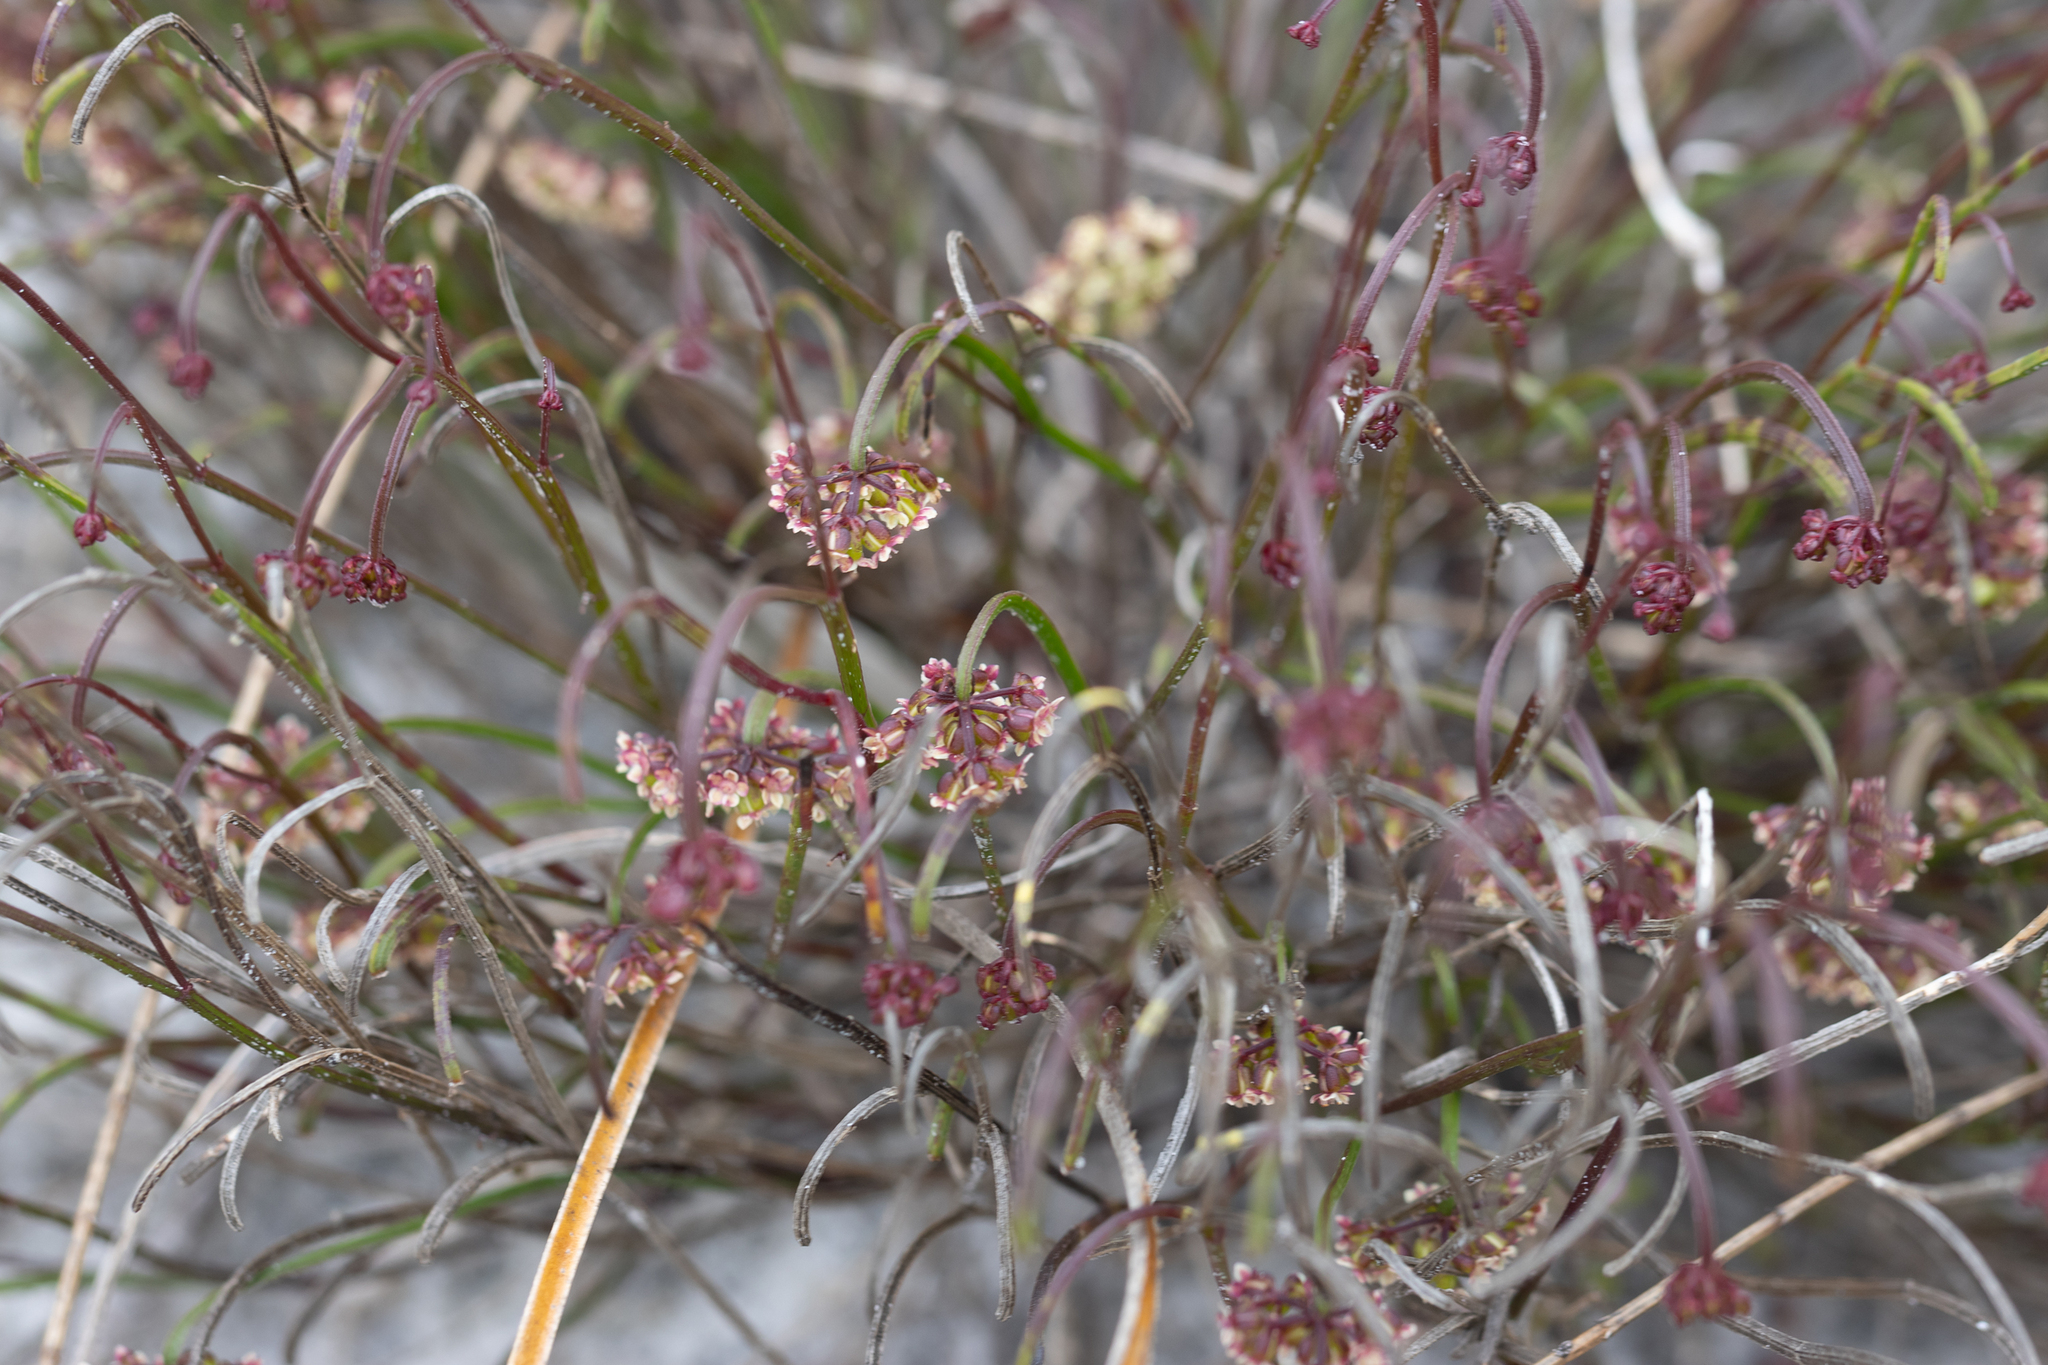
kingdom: Plantae
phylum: Tracheophyta
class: Magnoliopsida
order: Apiales
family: Apiaceae
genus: Platysace
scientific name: Platysace pendula
